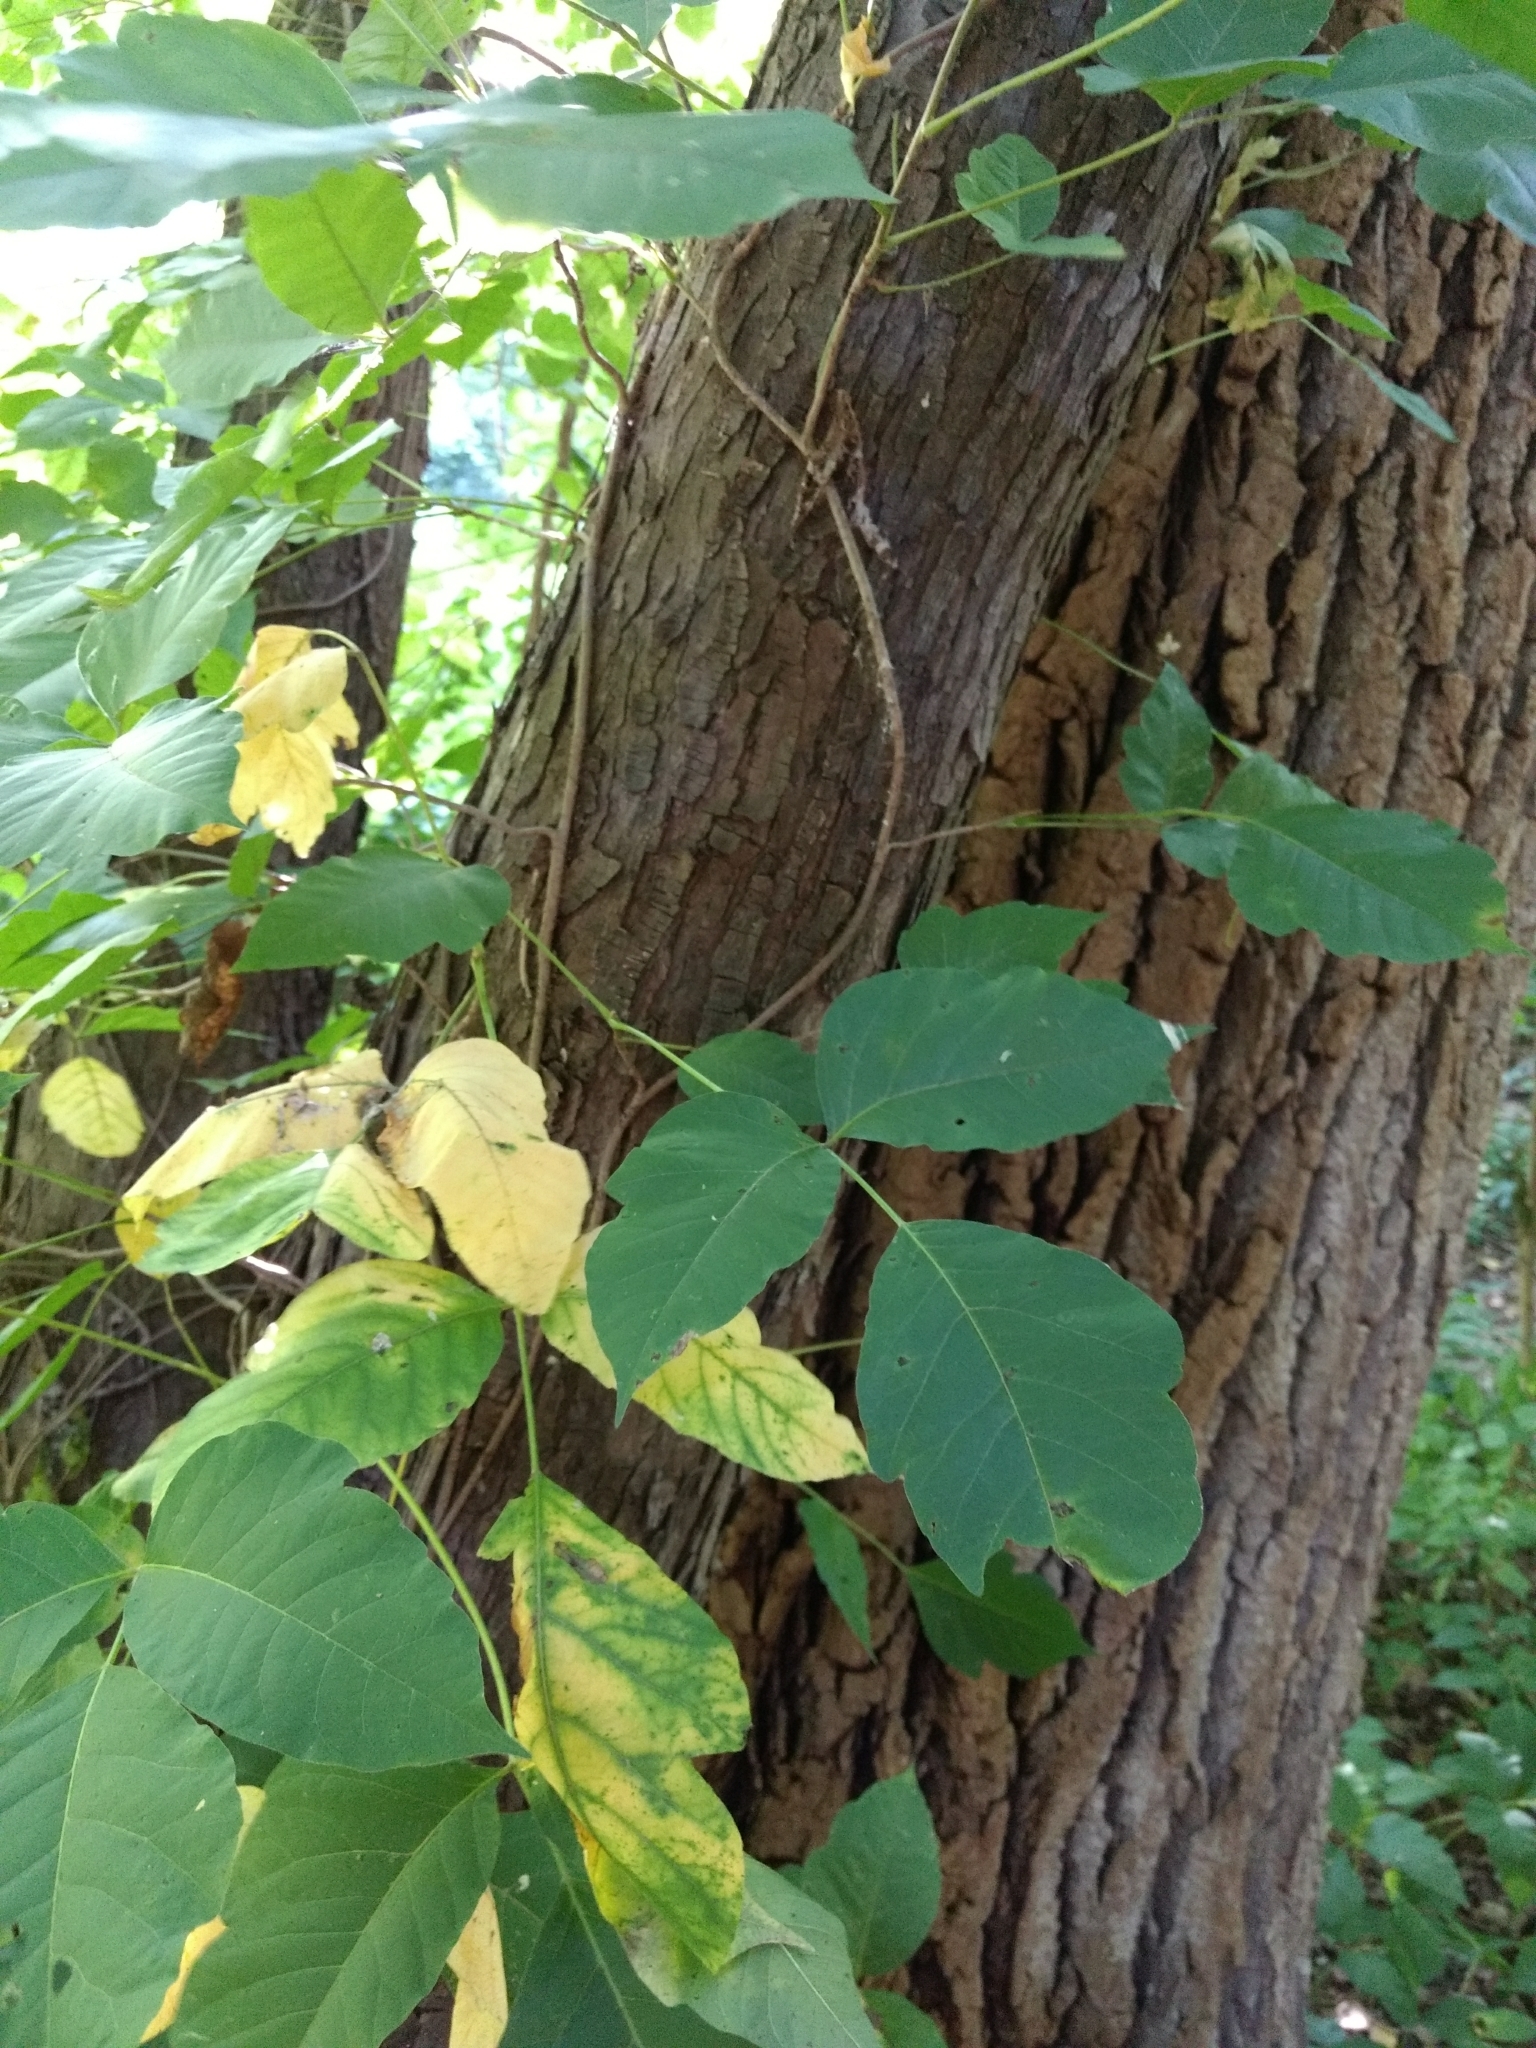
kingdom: Plantae
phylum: Tracheophyta
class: Magnoliopsida
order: Sapindales
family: Anacardiaceae
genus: Toxicodendron
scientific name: Toxicodendron radicans
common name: Poison ivy
